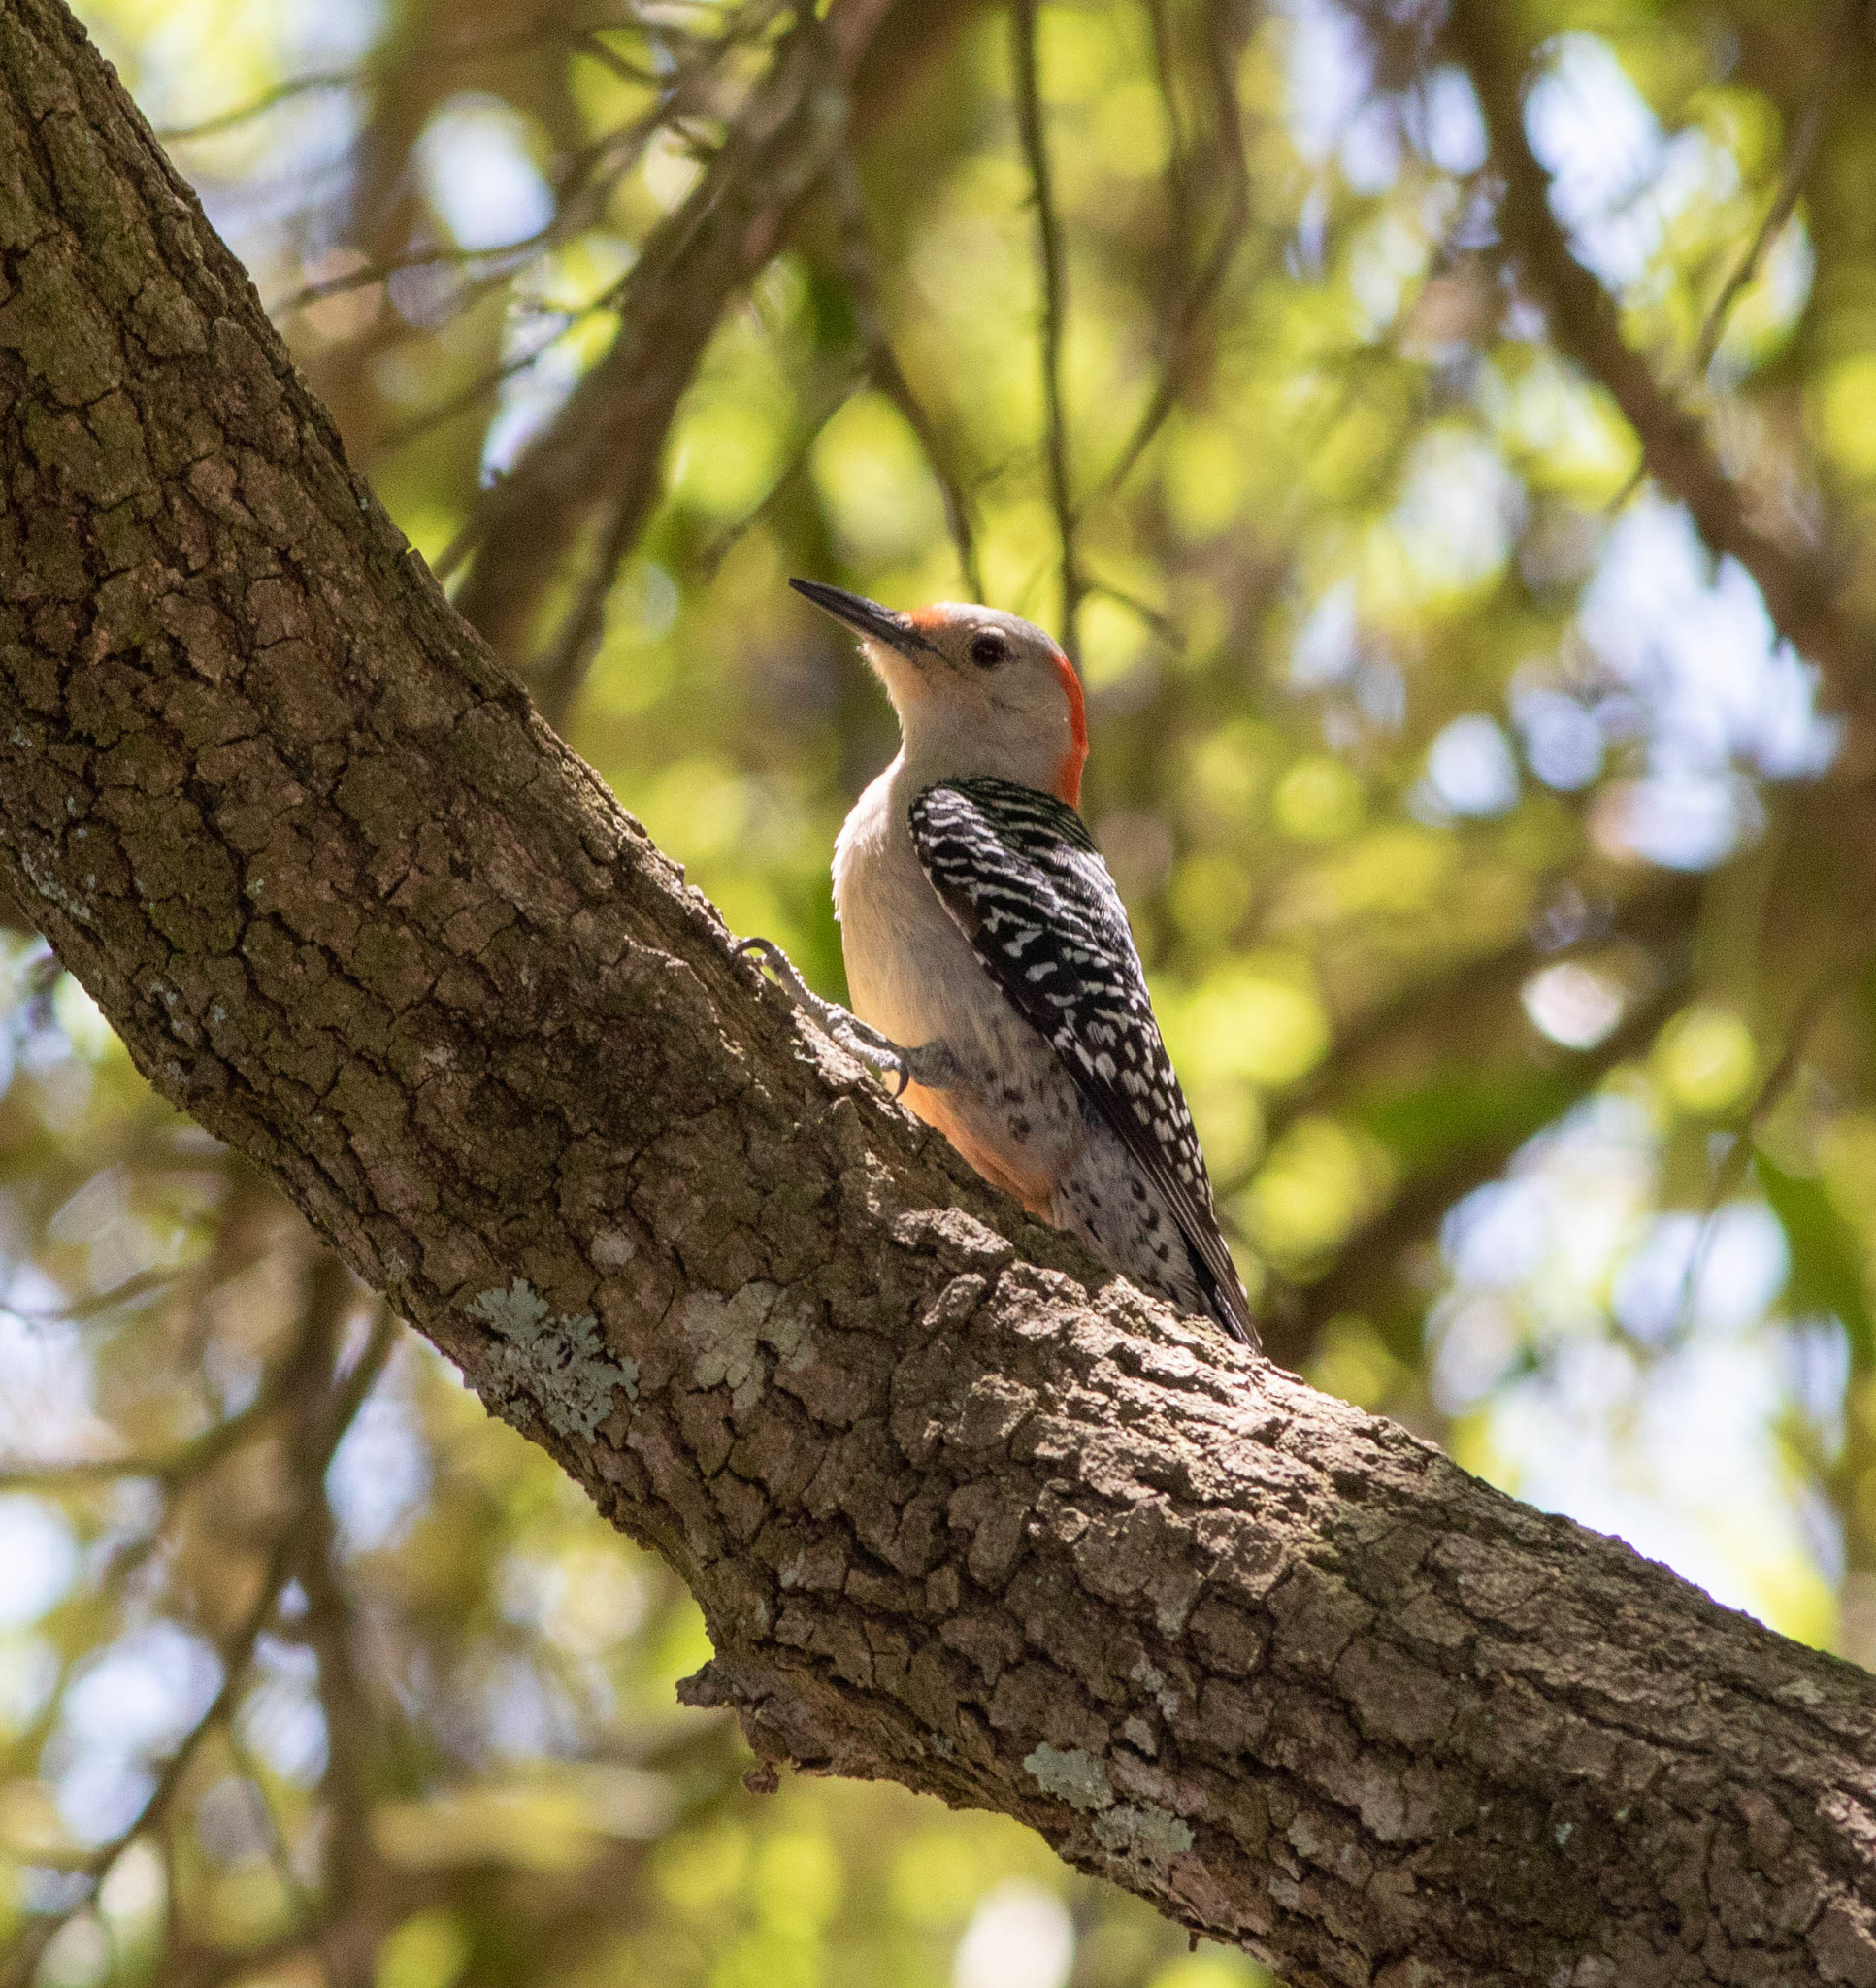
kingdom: Animalia
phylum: Chordata
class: Aves
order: Piciformes
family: Picidae
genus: Melanerpes
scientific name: Melanerpes carolinus
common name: Red-bellied woodpecker
